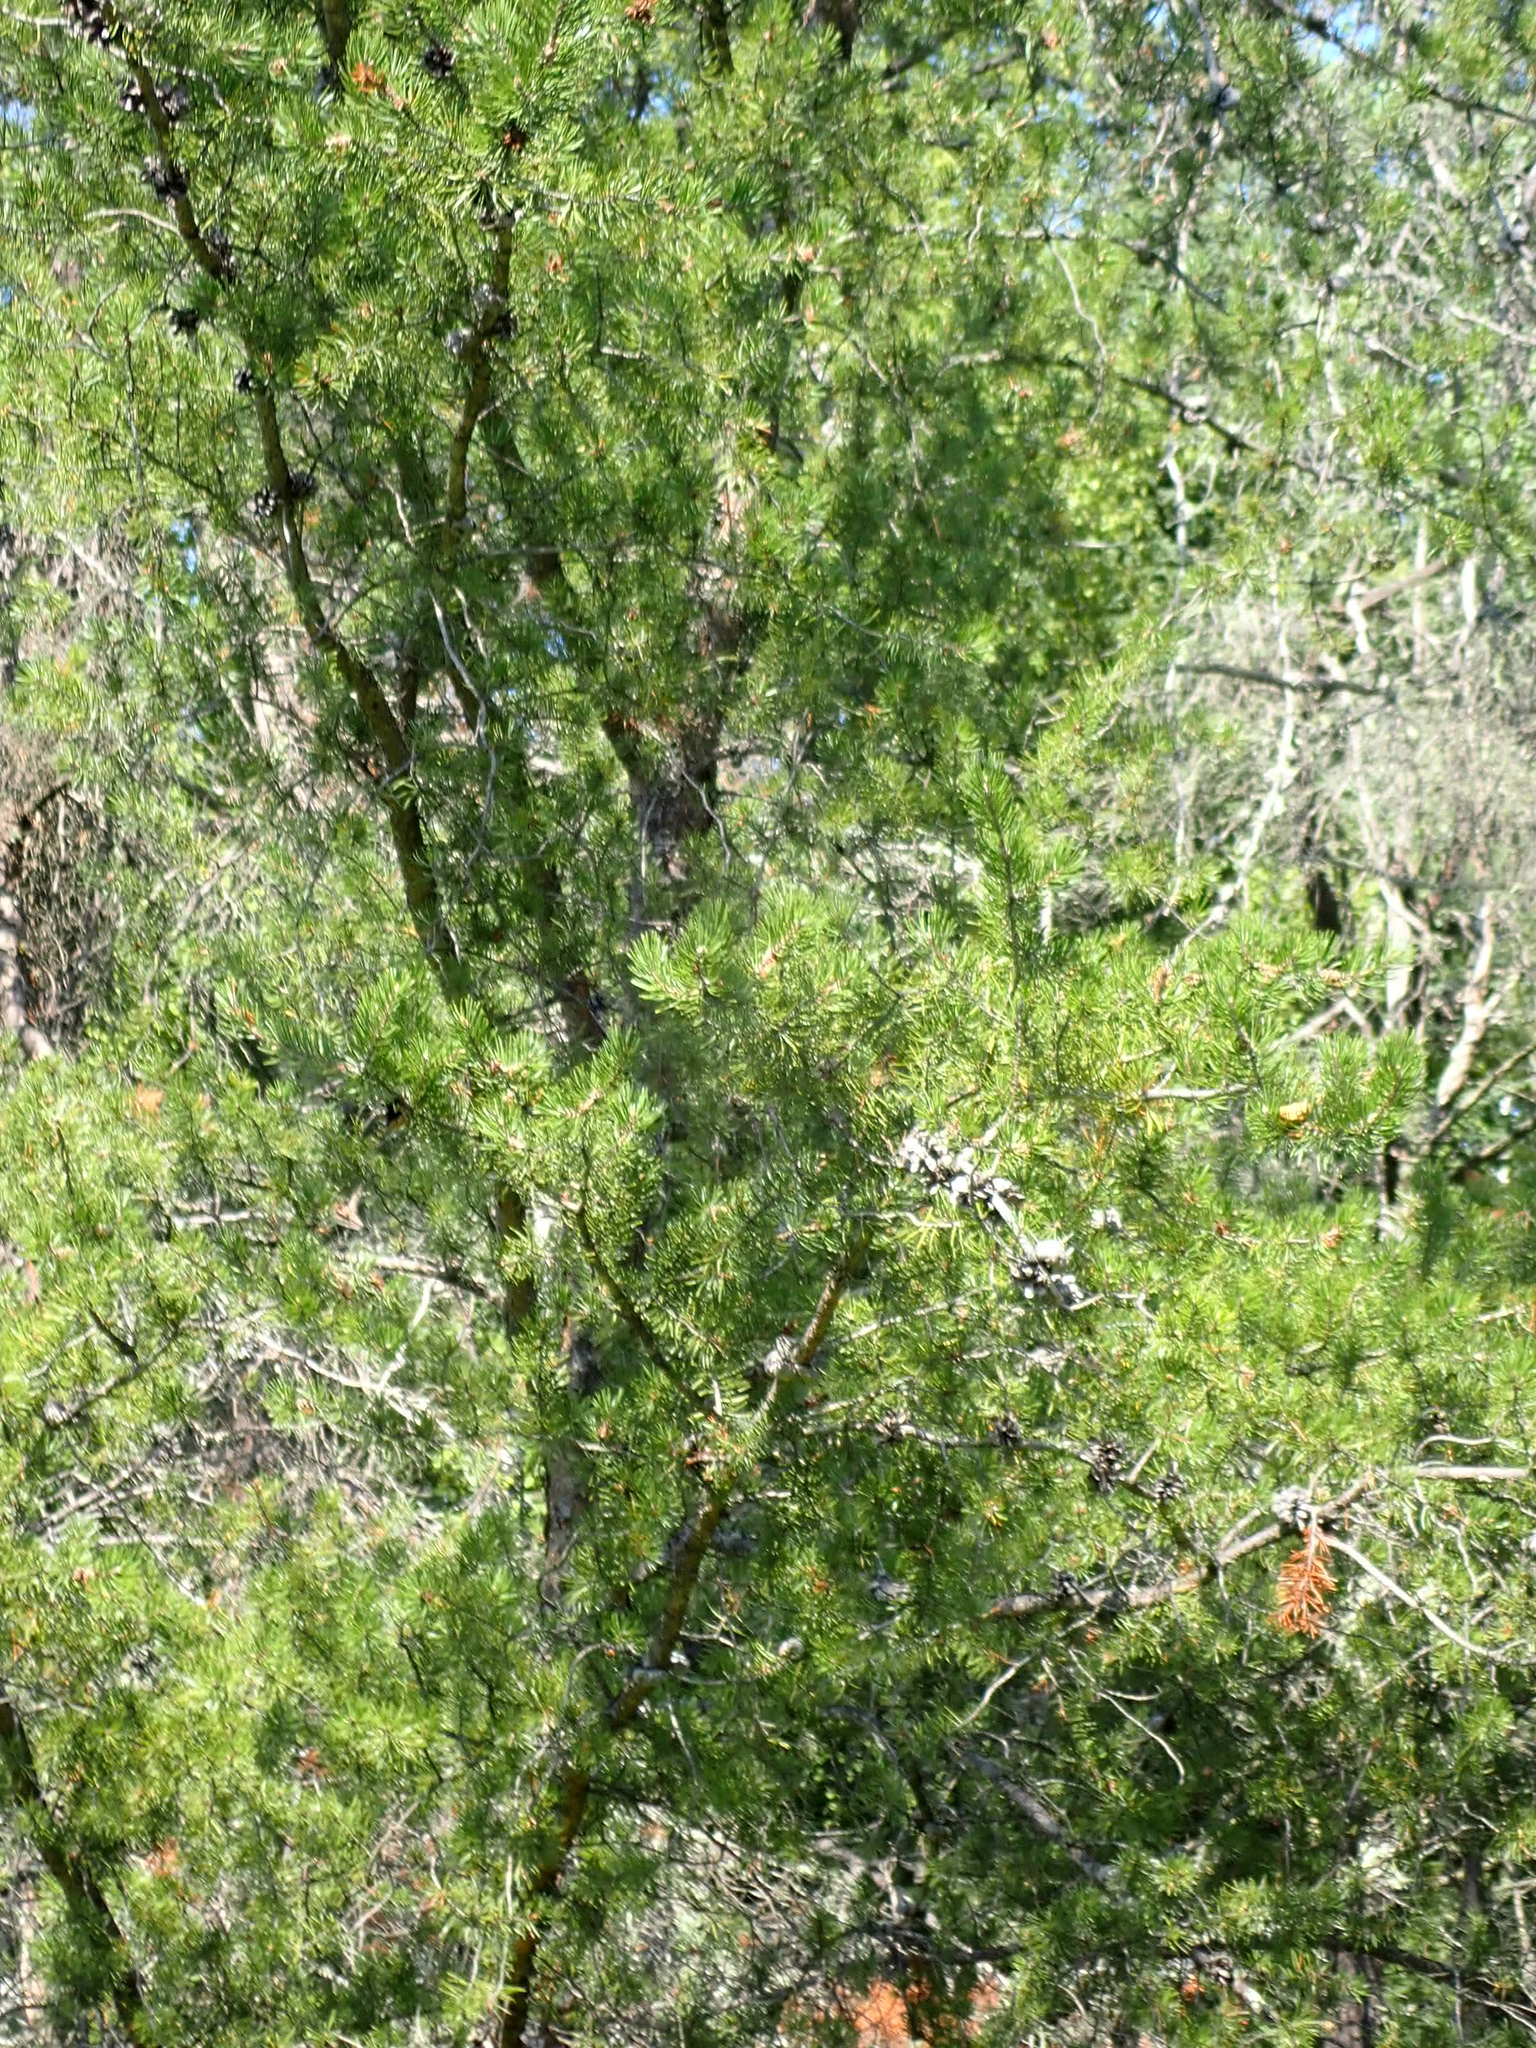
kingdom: Plantae
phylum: Tracheophyta
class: Pinopsida
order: Pinales
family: Pinaceae
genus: Pinus
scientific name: Pinus banksiana
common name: Jack pine
